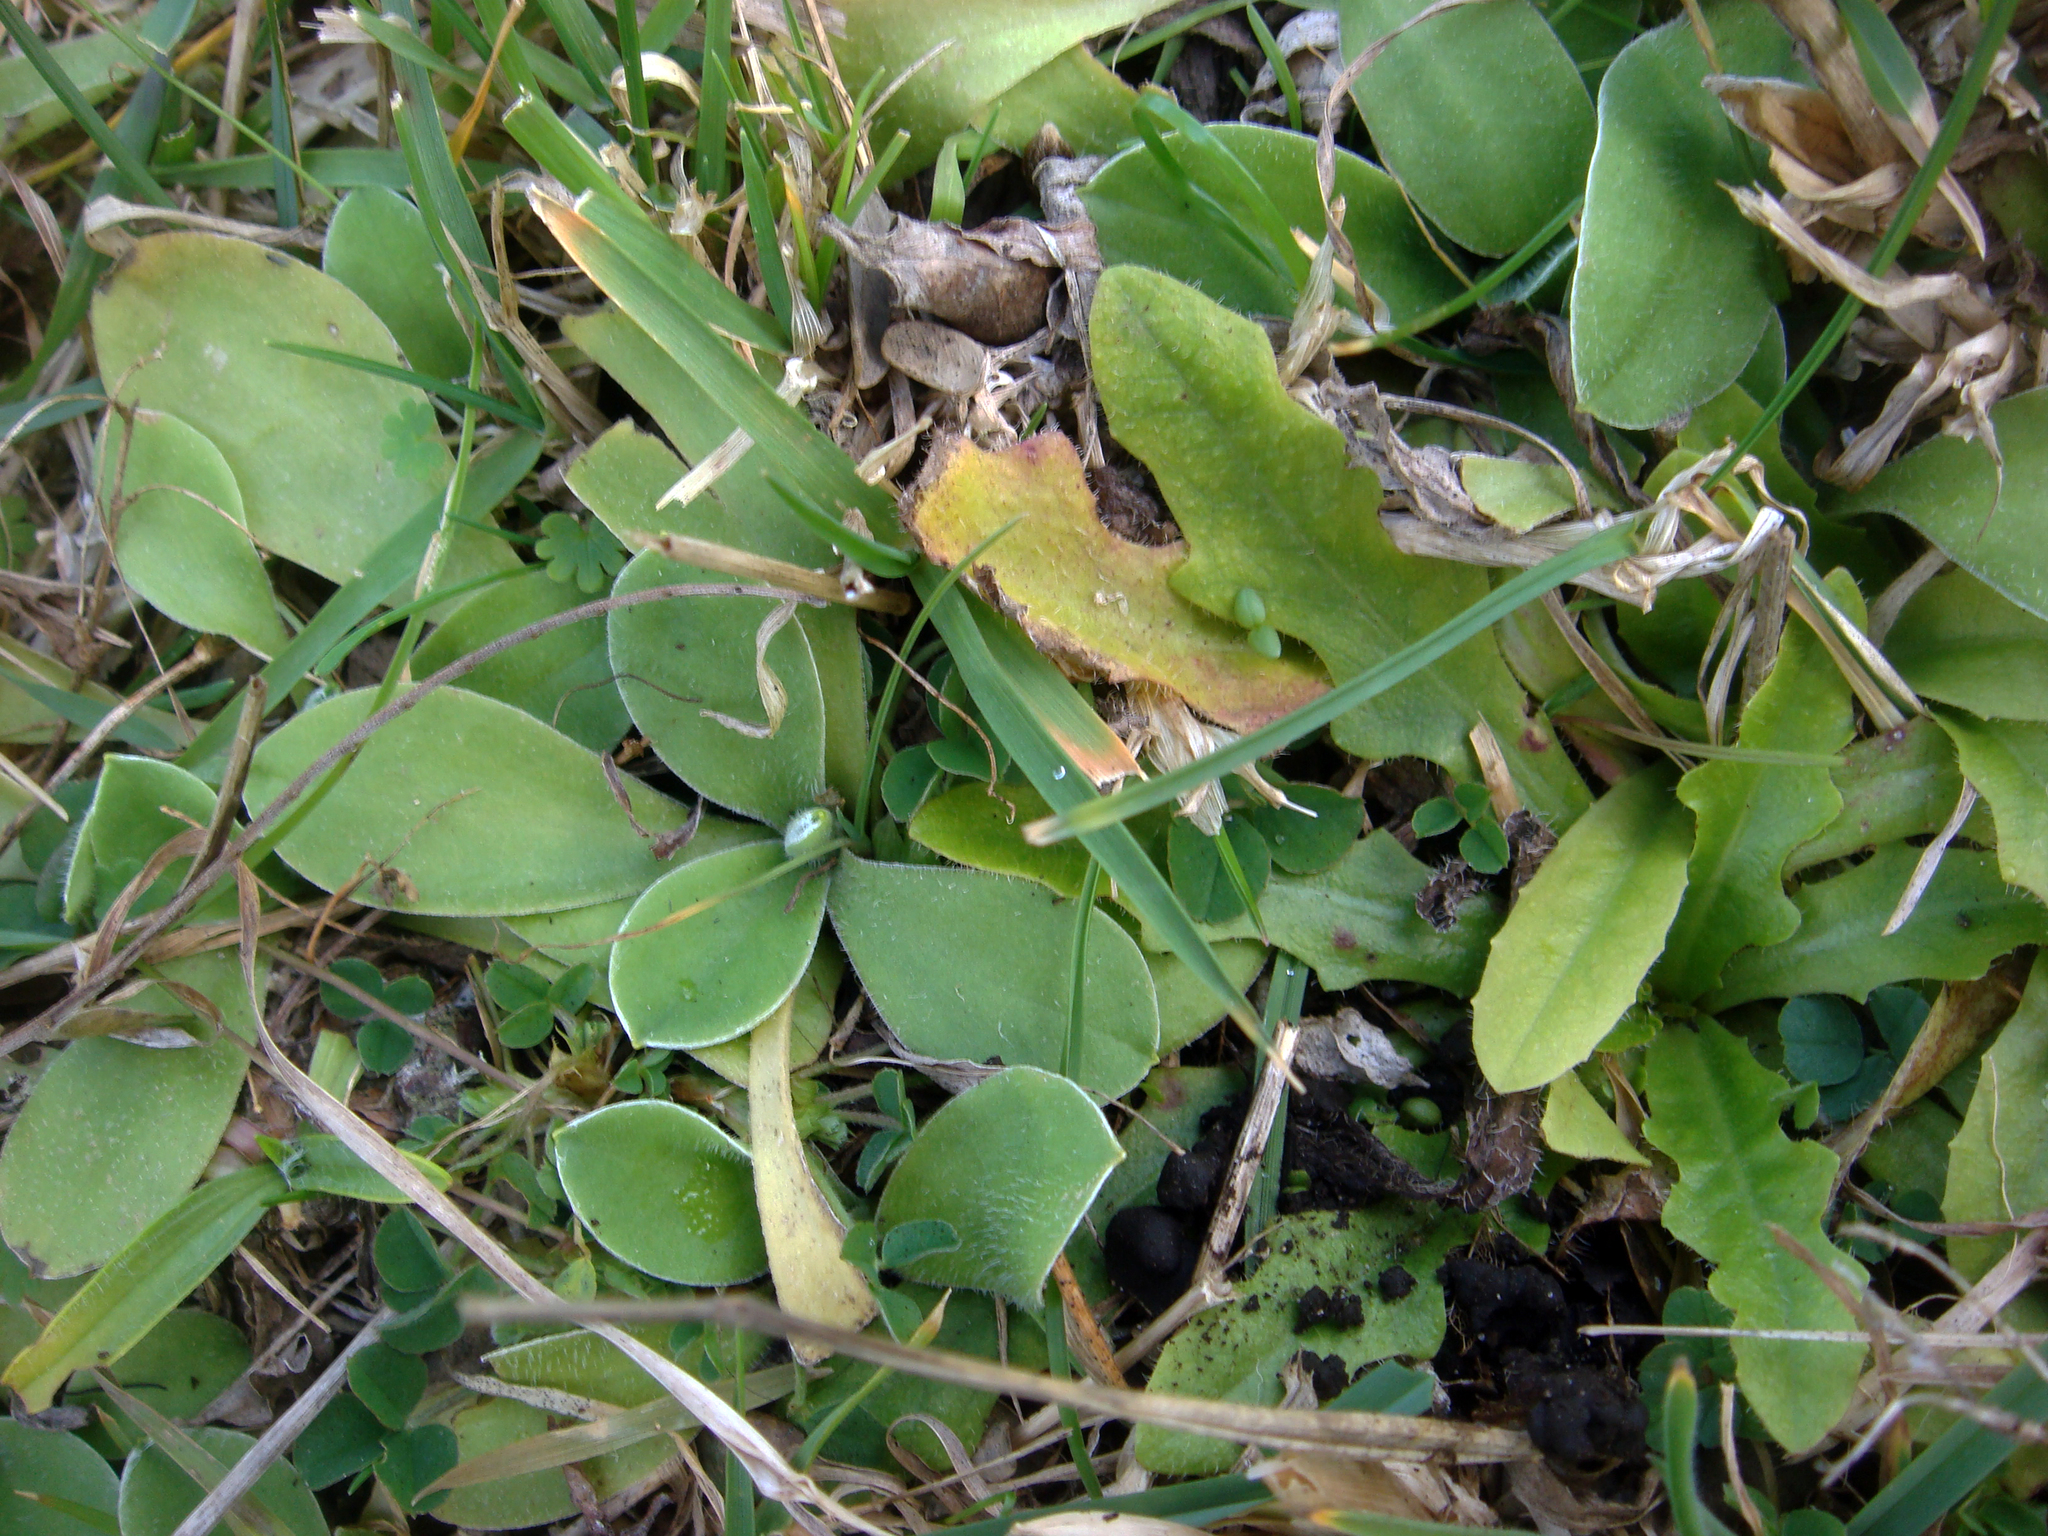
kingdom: Plantae
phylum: Tracheophyta
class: Magnoliopsida
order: Asterales
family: Asteraceae
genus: Craspedia
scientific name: Craspedia minor
